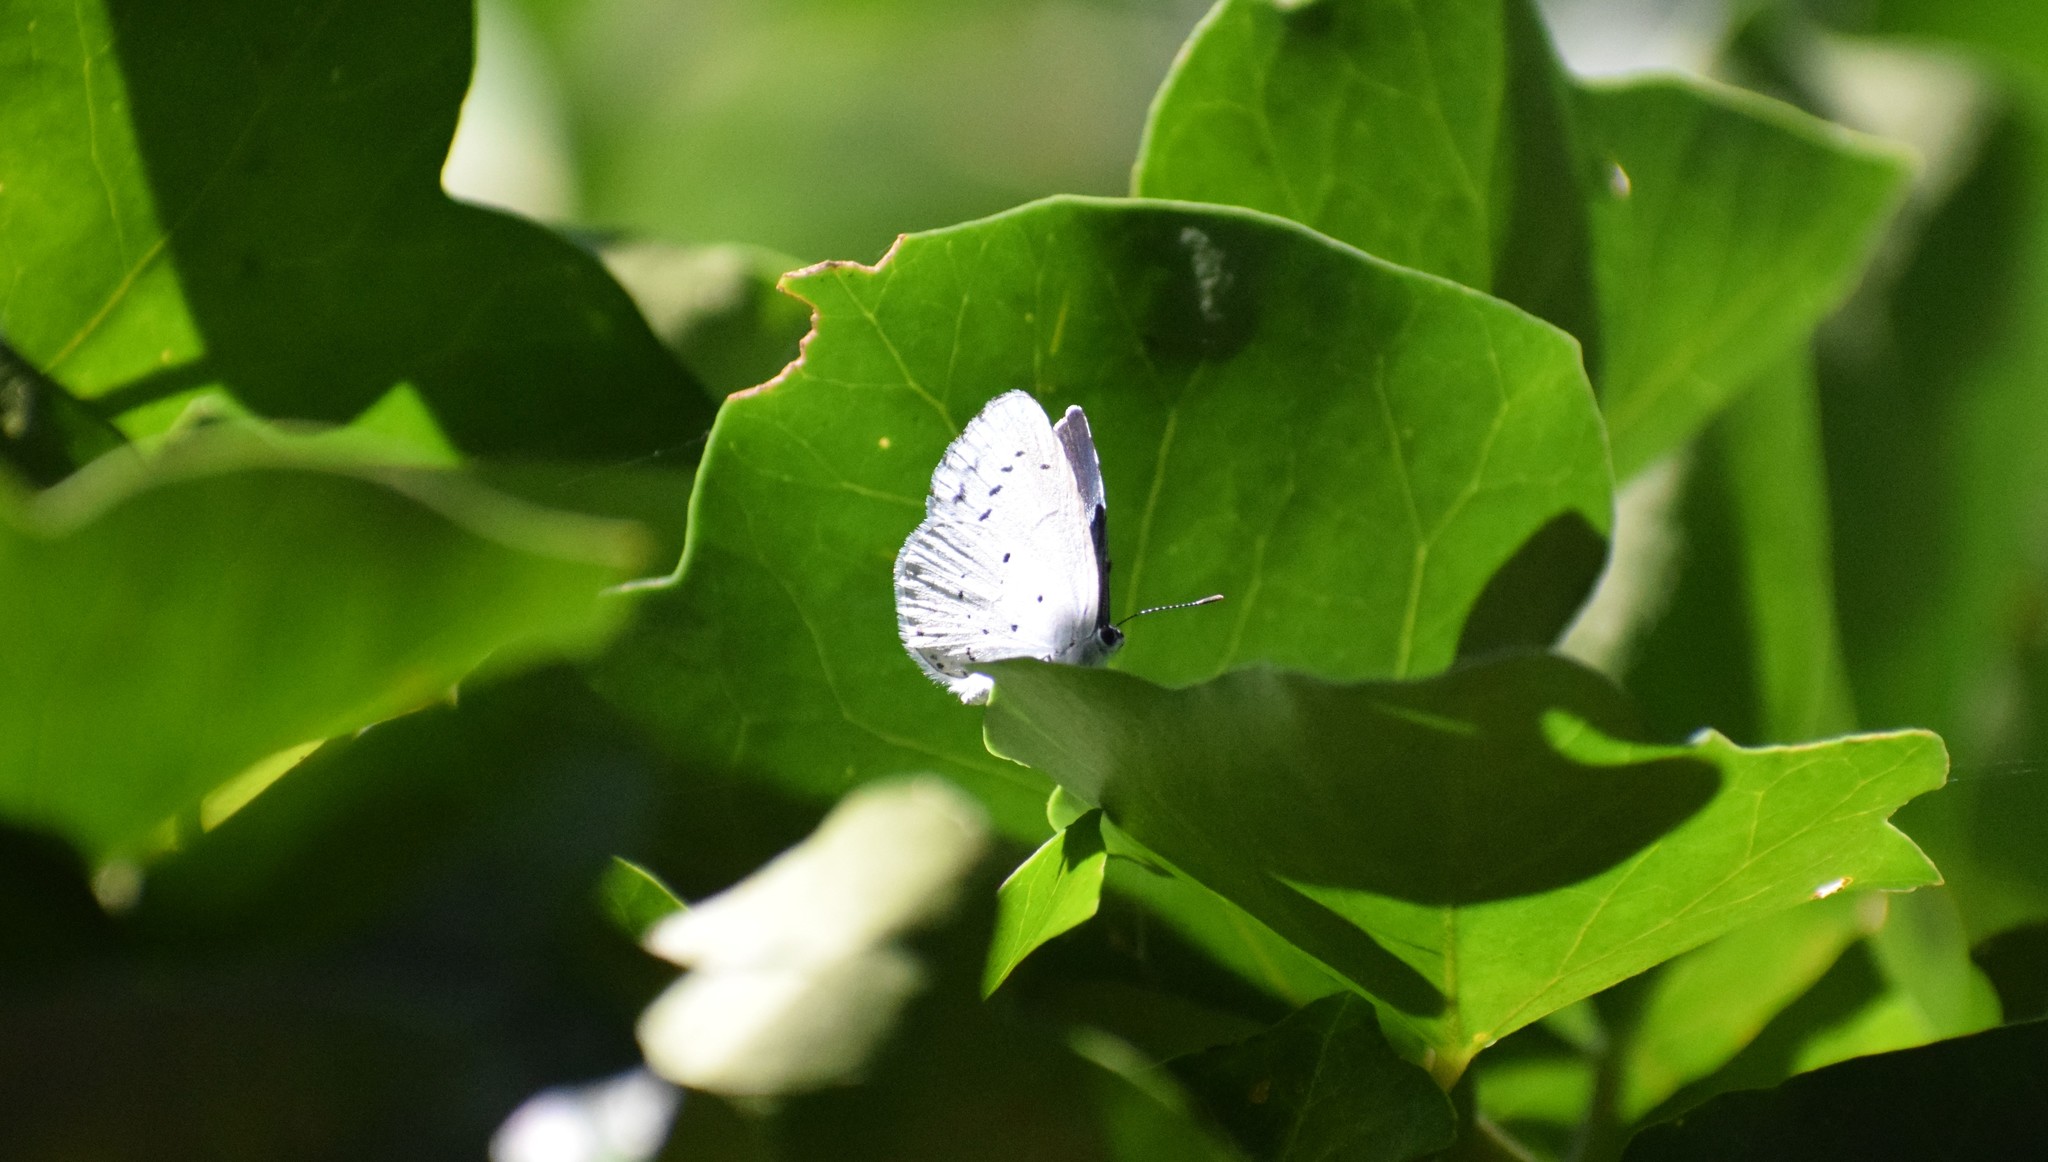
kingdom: Animalia
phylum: Arthropoda
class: Insecta
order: Lepidoptera
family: Lycaenidae
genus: Celastrina
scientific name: Celastrina
